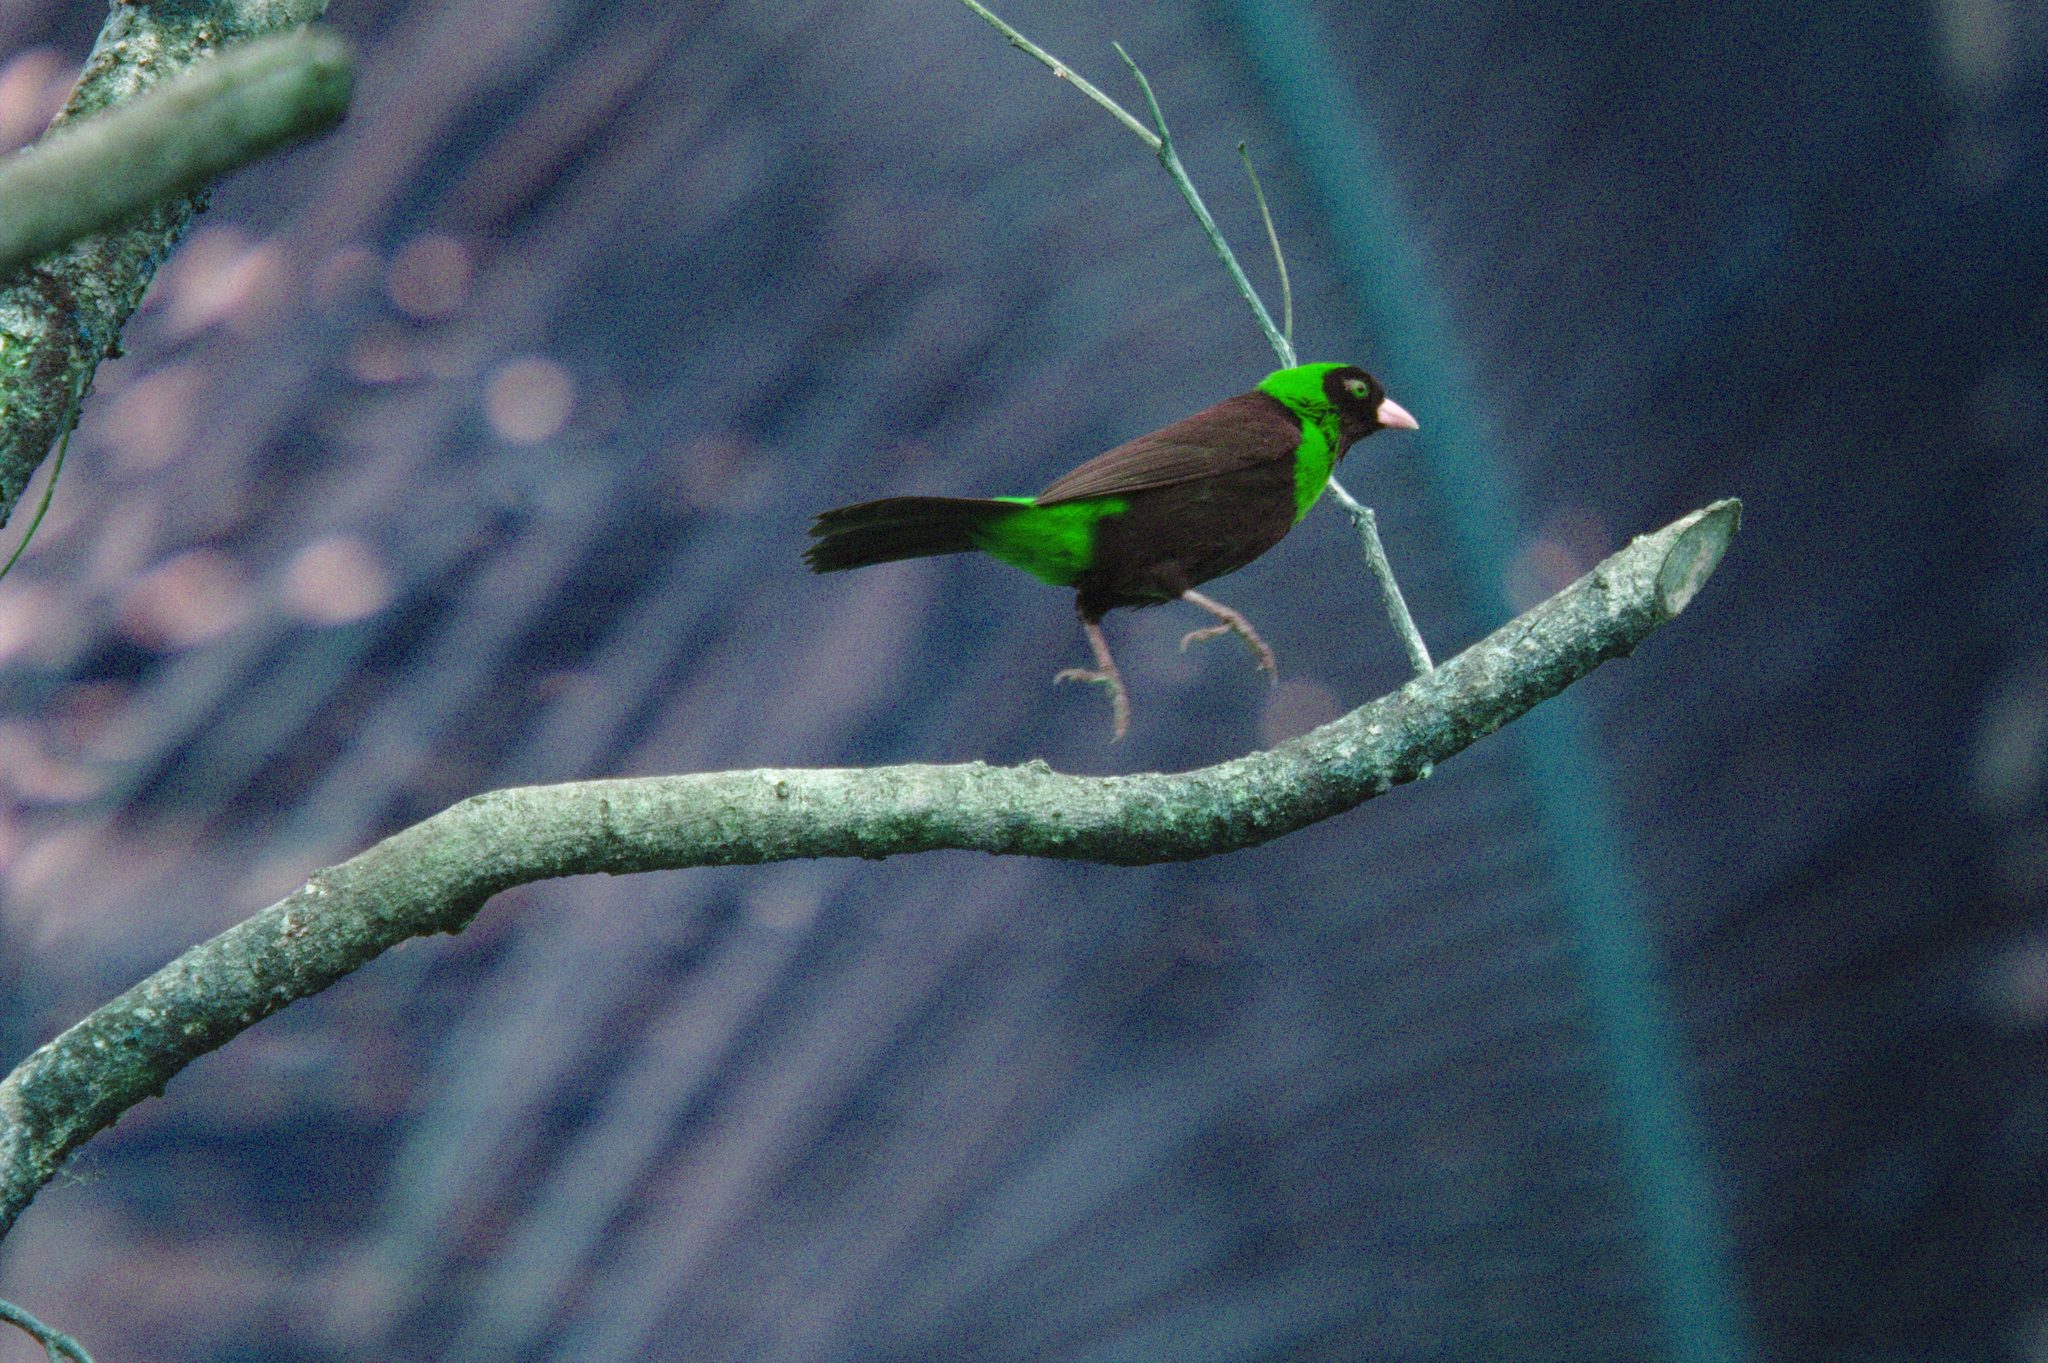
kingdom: Animalia
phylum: Chordata
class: Aves
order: Passeriformes
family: Thraupidae
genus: Ramphocelus
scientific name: Ramphocelus sanguinolentus
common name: Crimson-collared tanager
